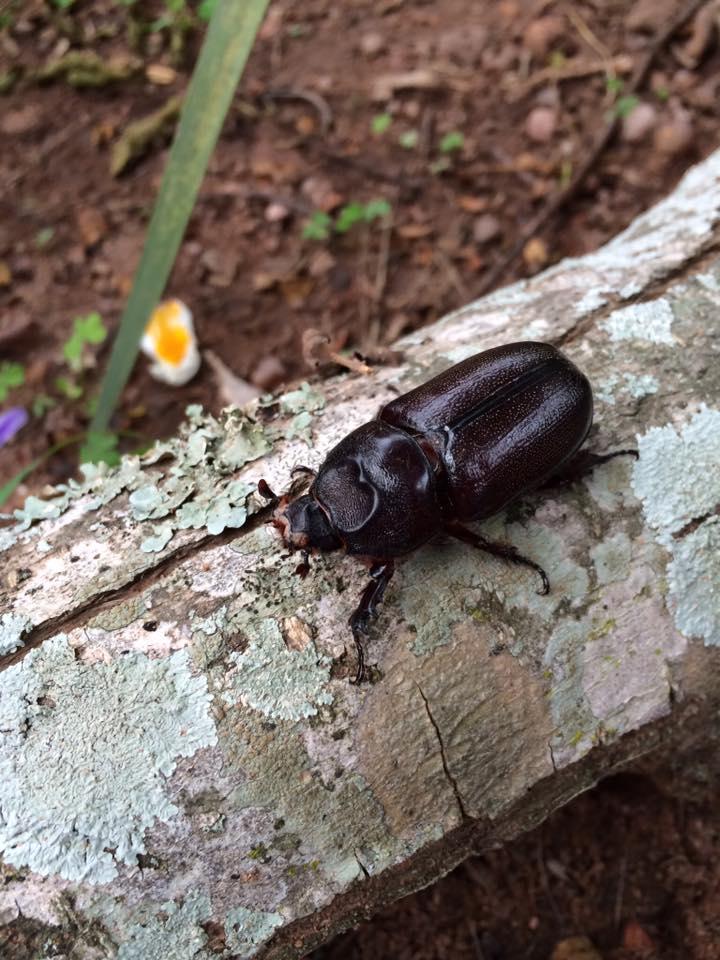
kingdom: Animalia
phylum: Arthropoda
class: Insecta
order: Coleoptera
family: Scarabaeidae
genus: Oryctes
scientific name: Oryctes monoceros
